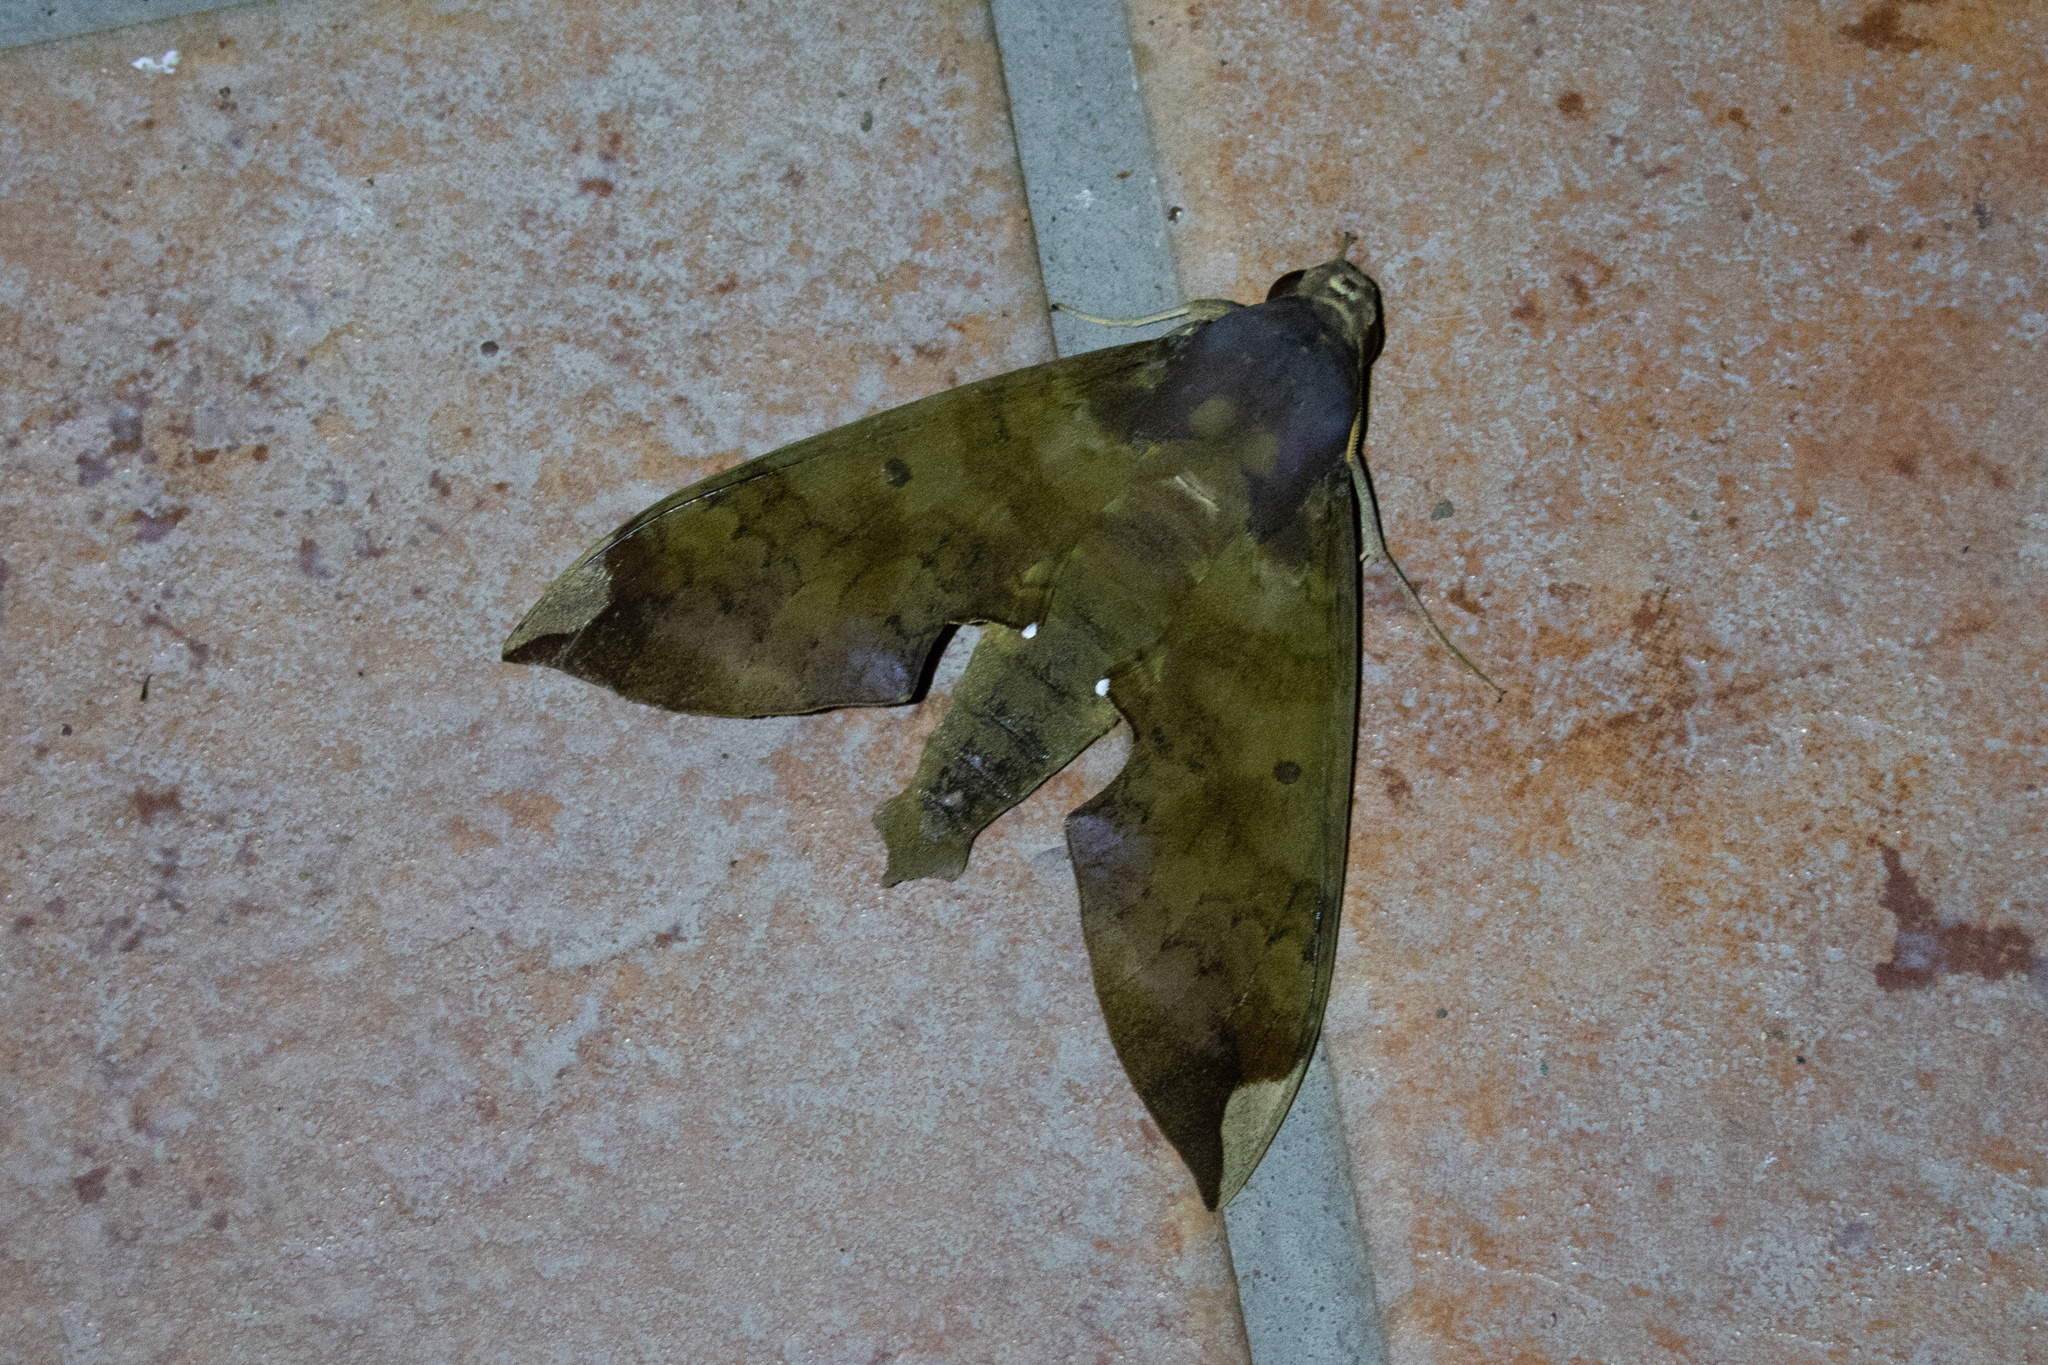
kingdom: Animalia
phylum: Arthropoda
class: Insecta
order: Lepidoptera
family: Sphingidae
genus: Pachylia
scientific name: Pachylia ficus
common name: Fig sphinx
